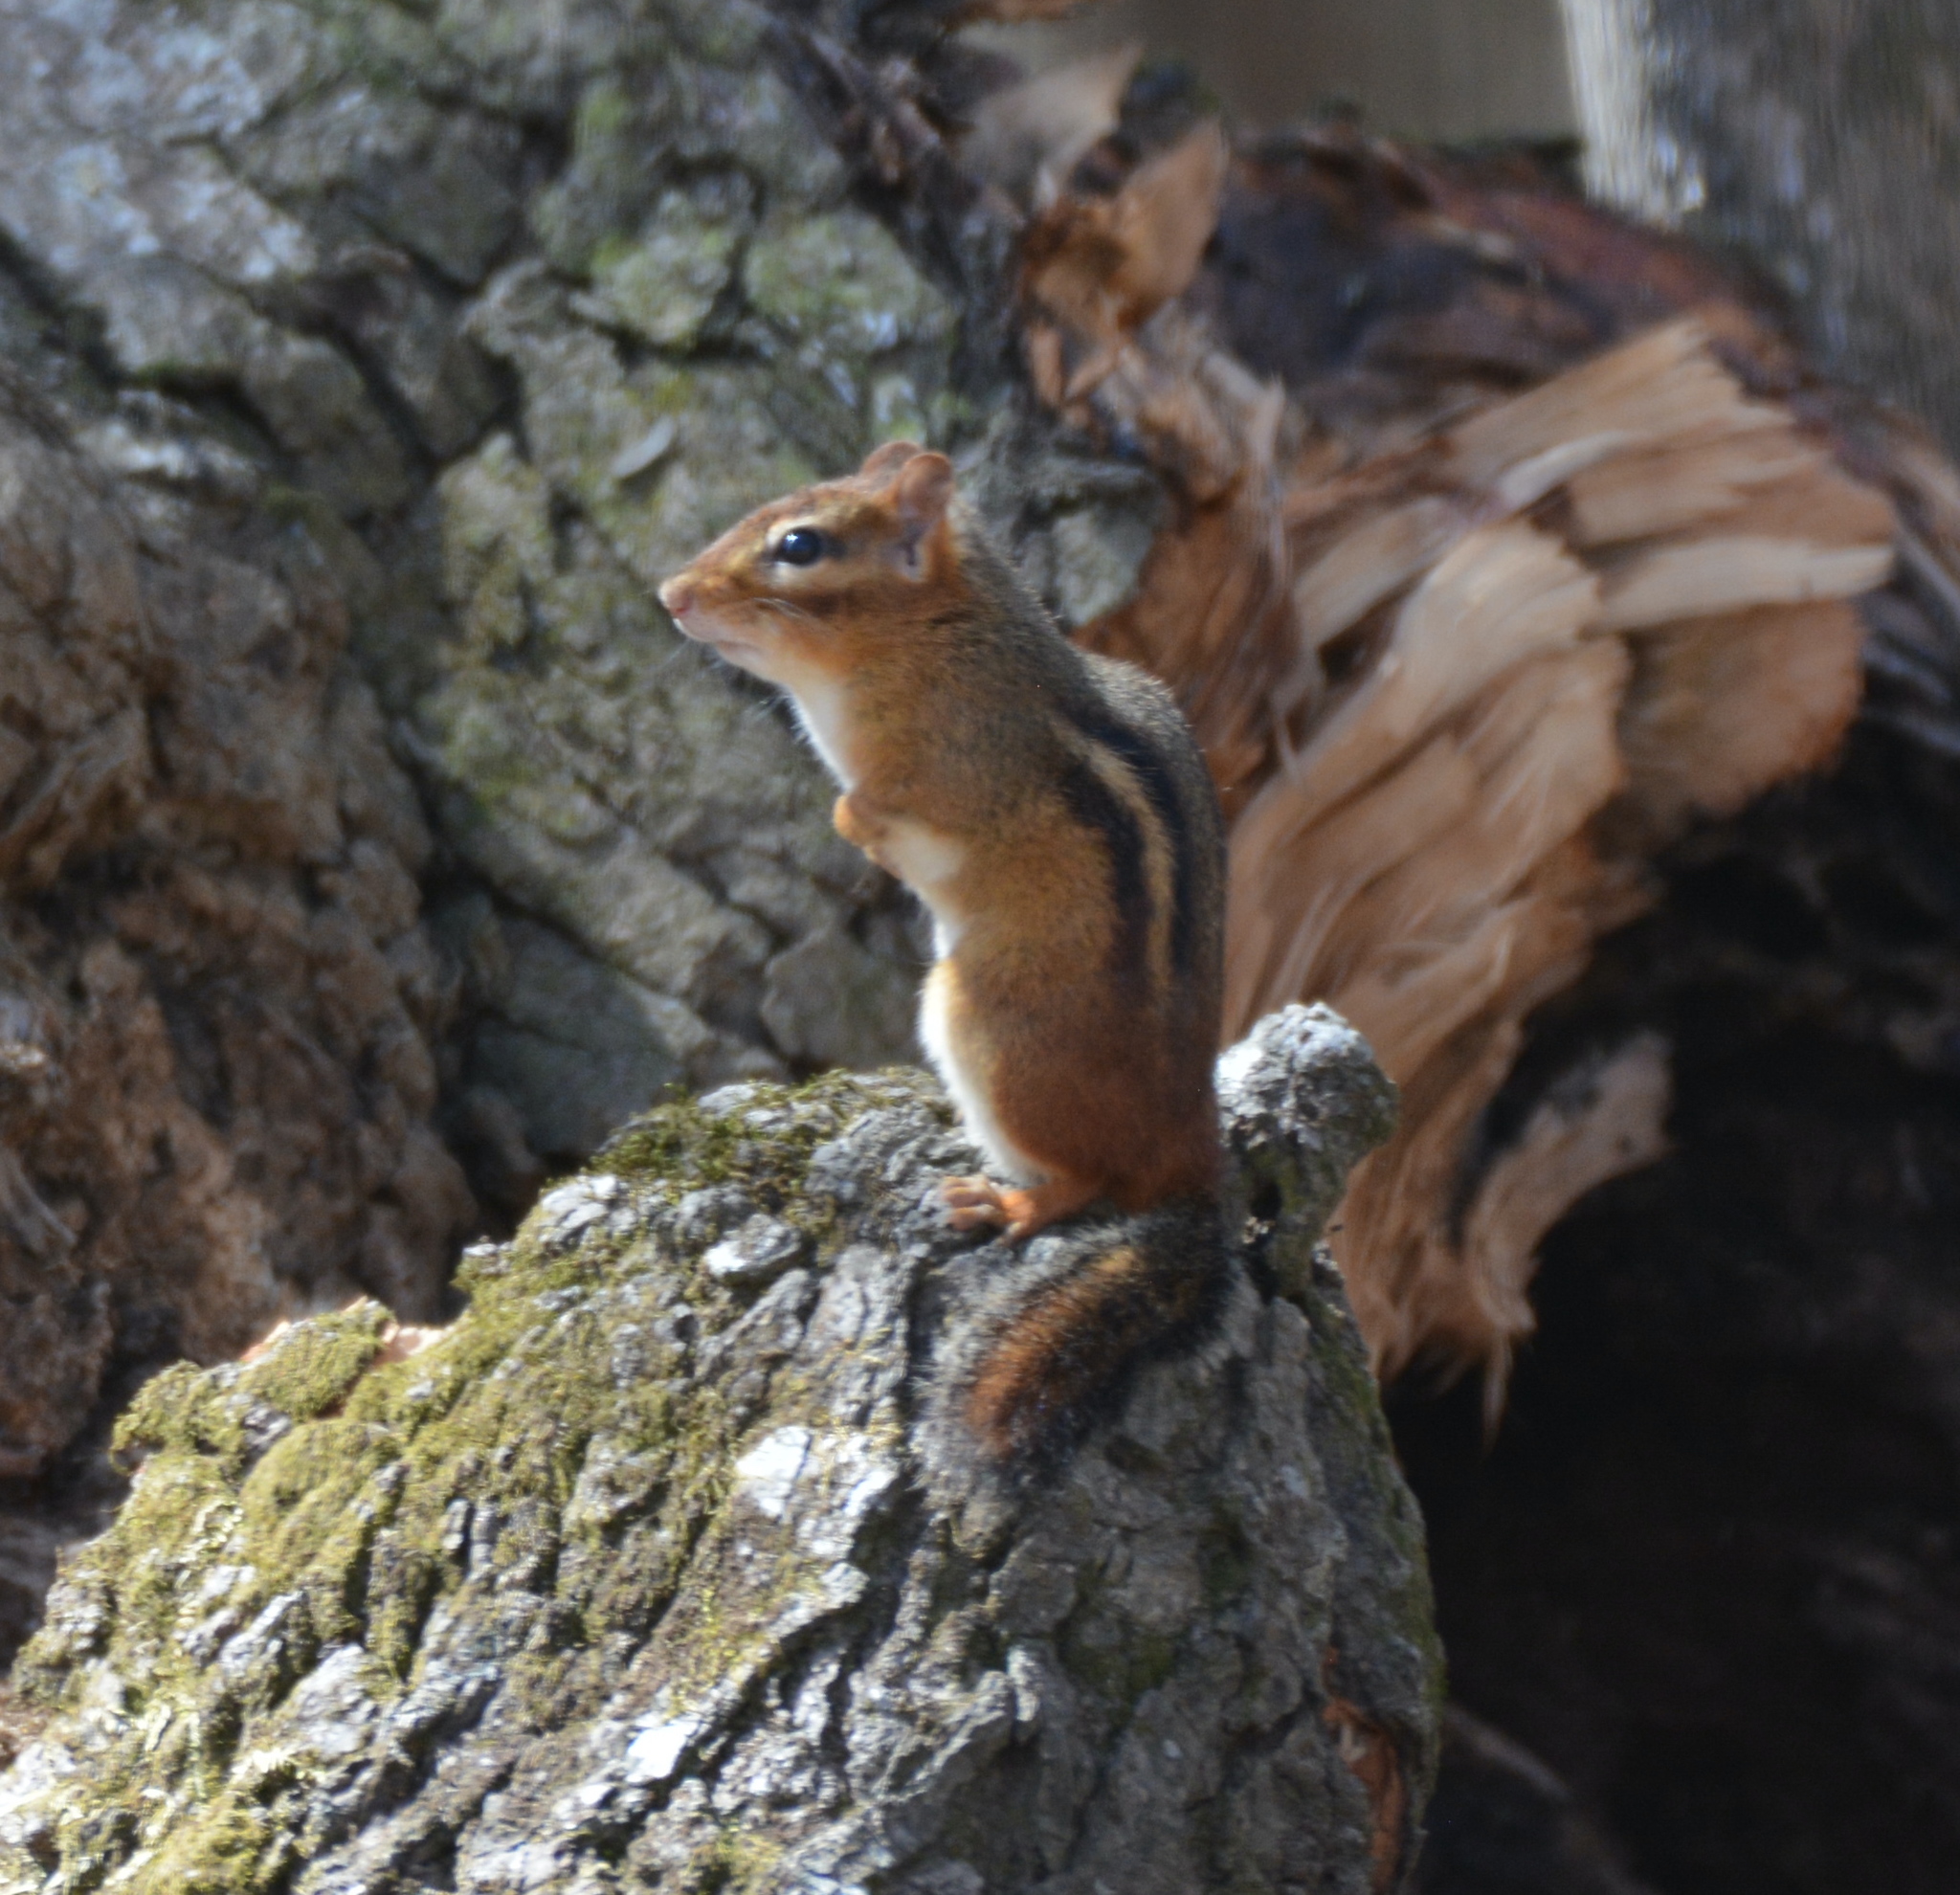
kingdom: Animalia
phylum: Chordata
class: Mammalia
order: Rodentia
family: Sciuridae
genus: Tamias
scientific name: Tamias striatus
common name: Eastern chipmunk
